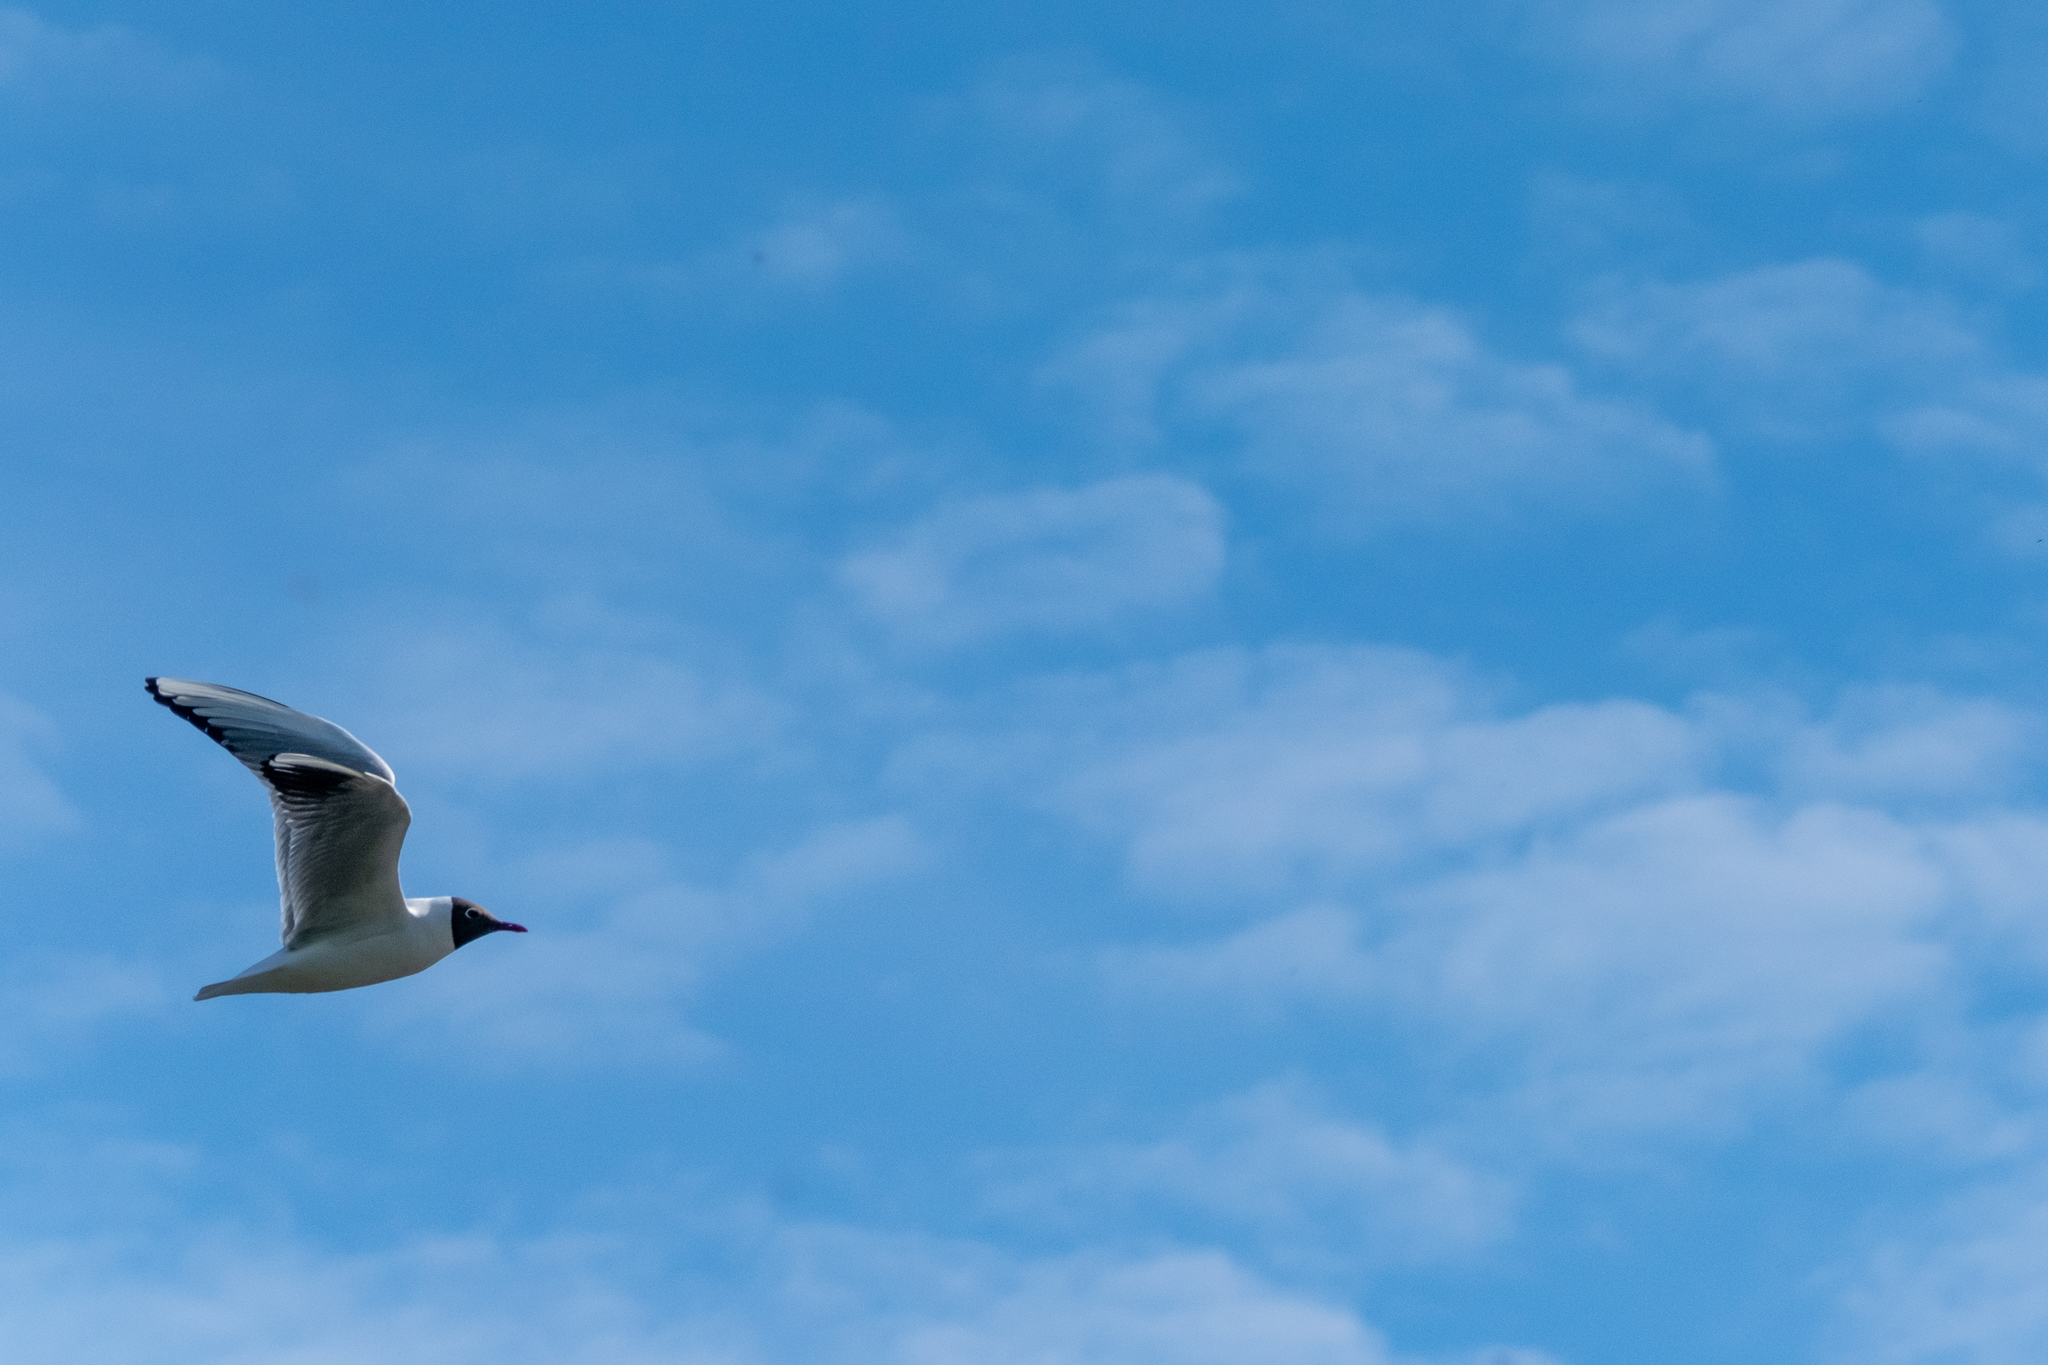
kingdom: Animalia
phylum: Chordata
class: Aves
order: Charadriiformes
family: Laridae
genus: Chroicocephalus
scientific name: Chroicocephalus ridibundus
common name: Black-headed gull
